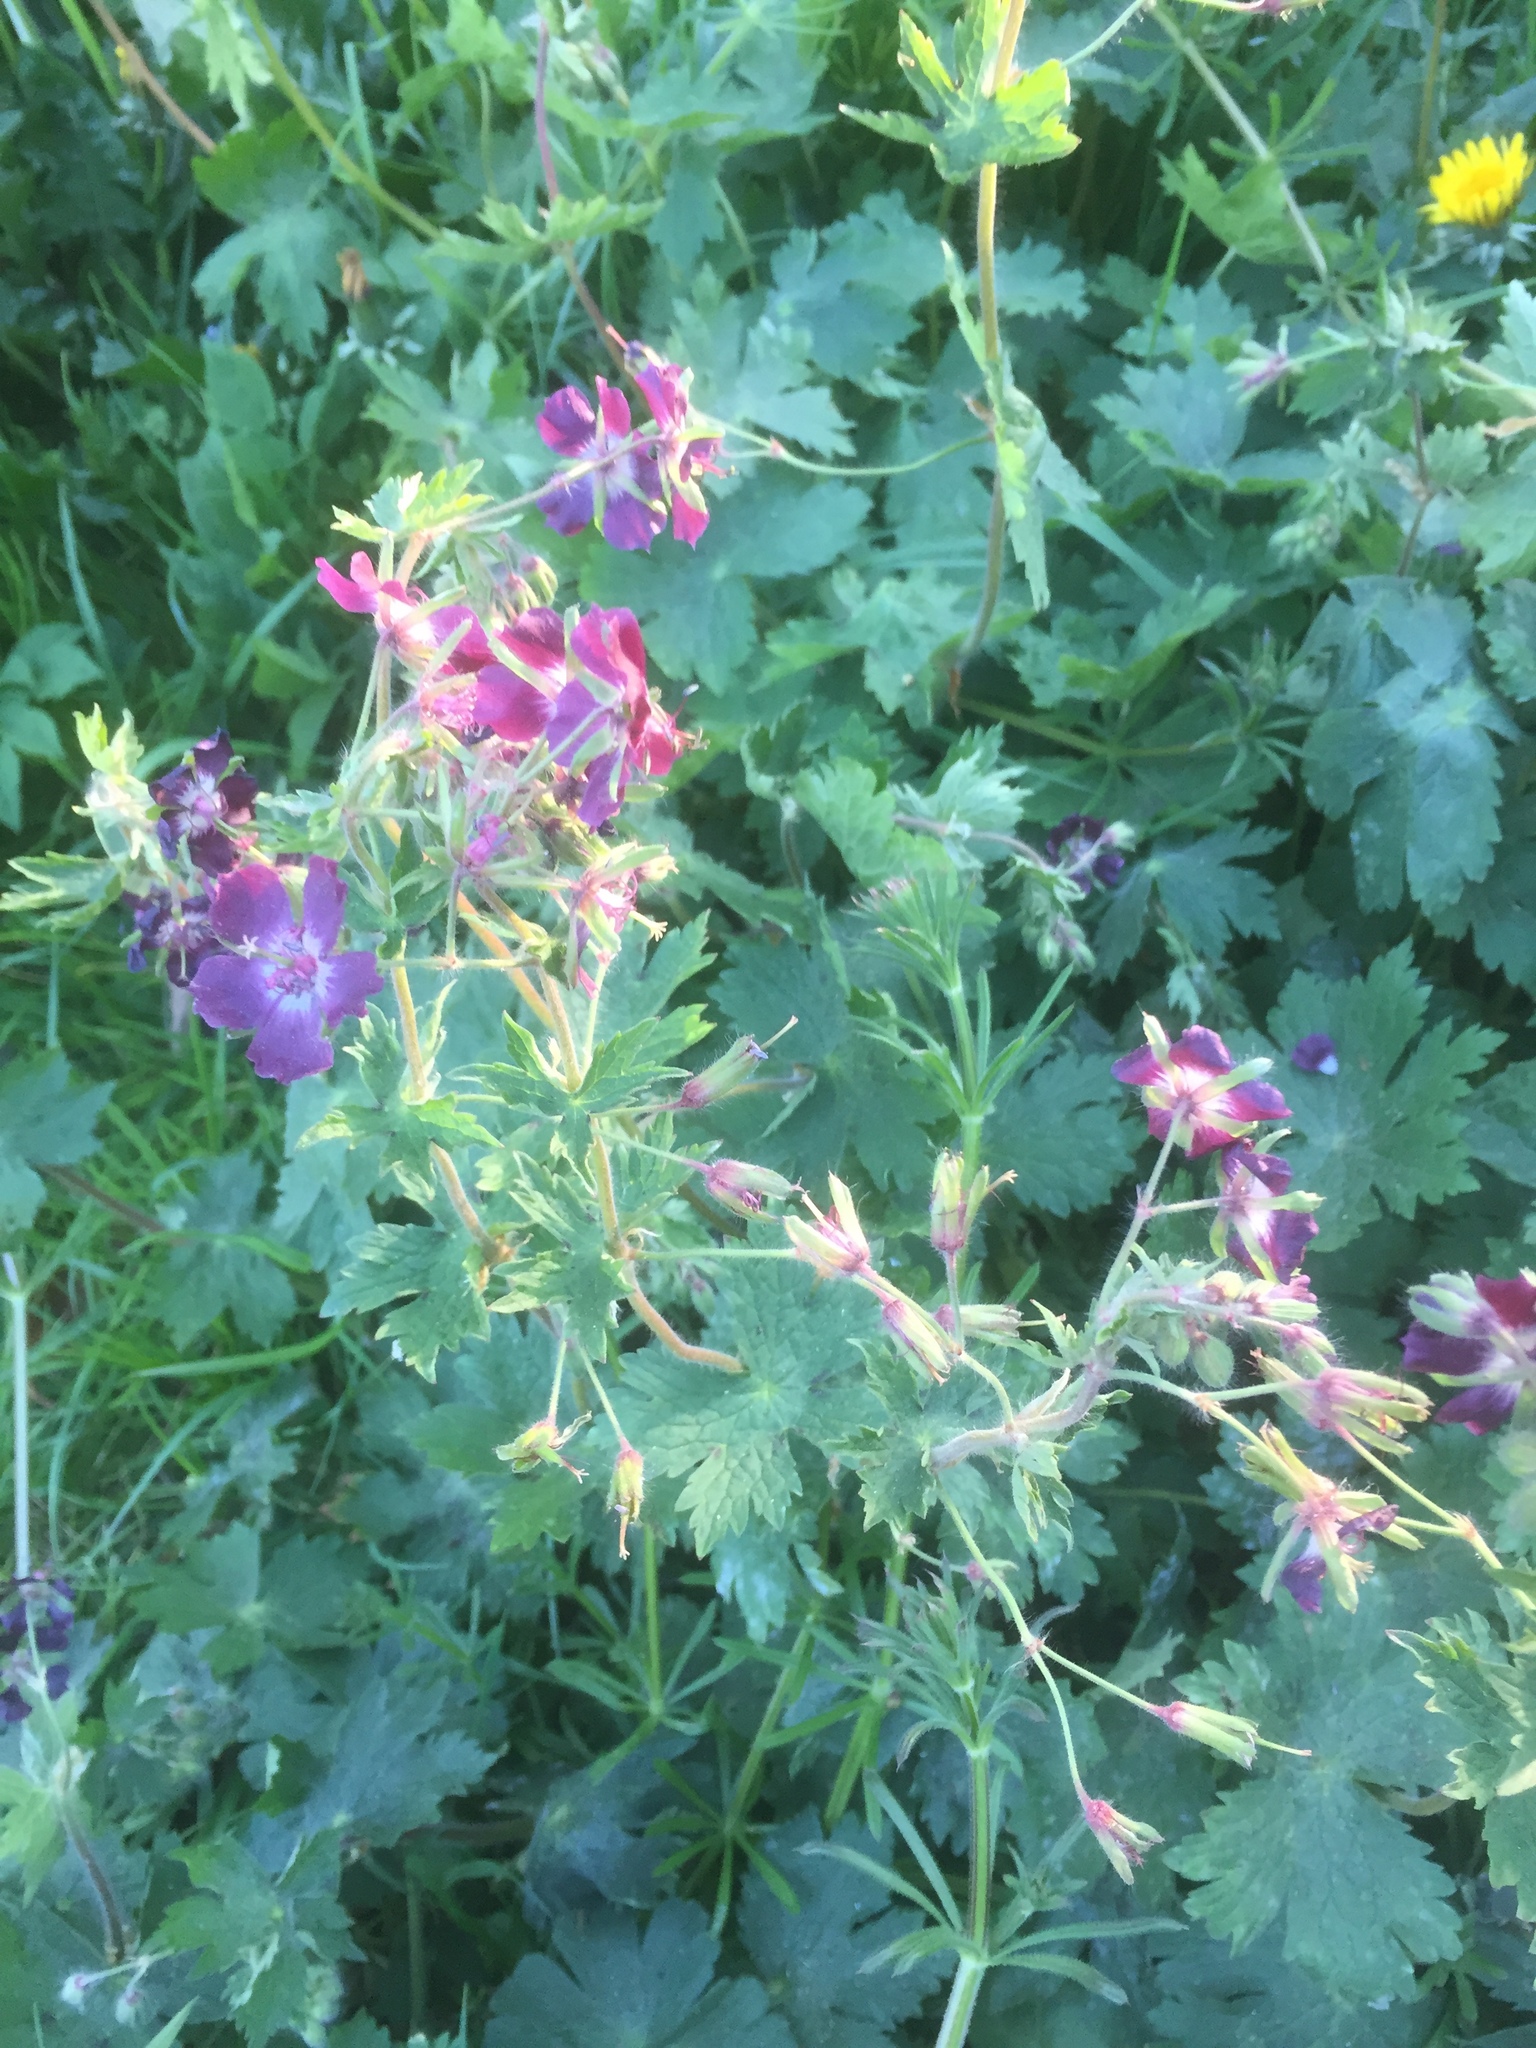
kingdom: Plantae
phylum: Tracheophyta
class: Magnoliopsida
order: Geraniales
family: Geraniaceae
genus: Geranium
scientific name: Geranium phaeum
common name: Dusky crane's-bill
